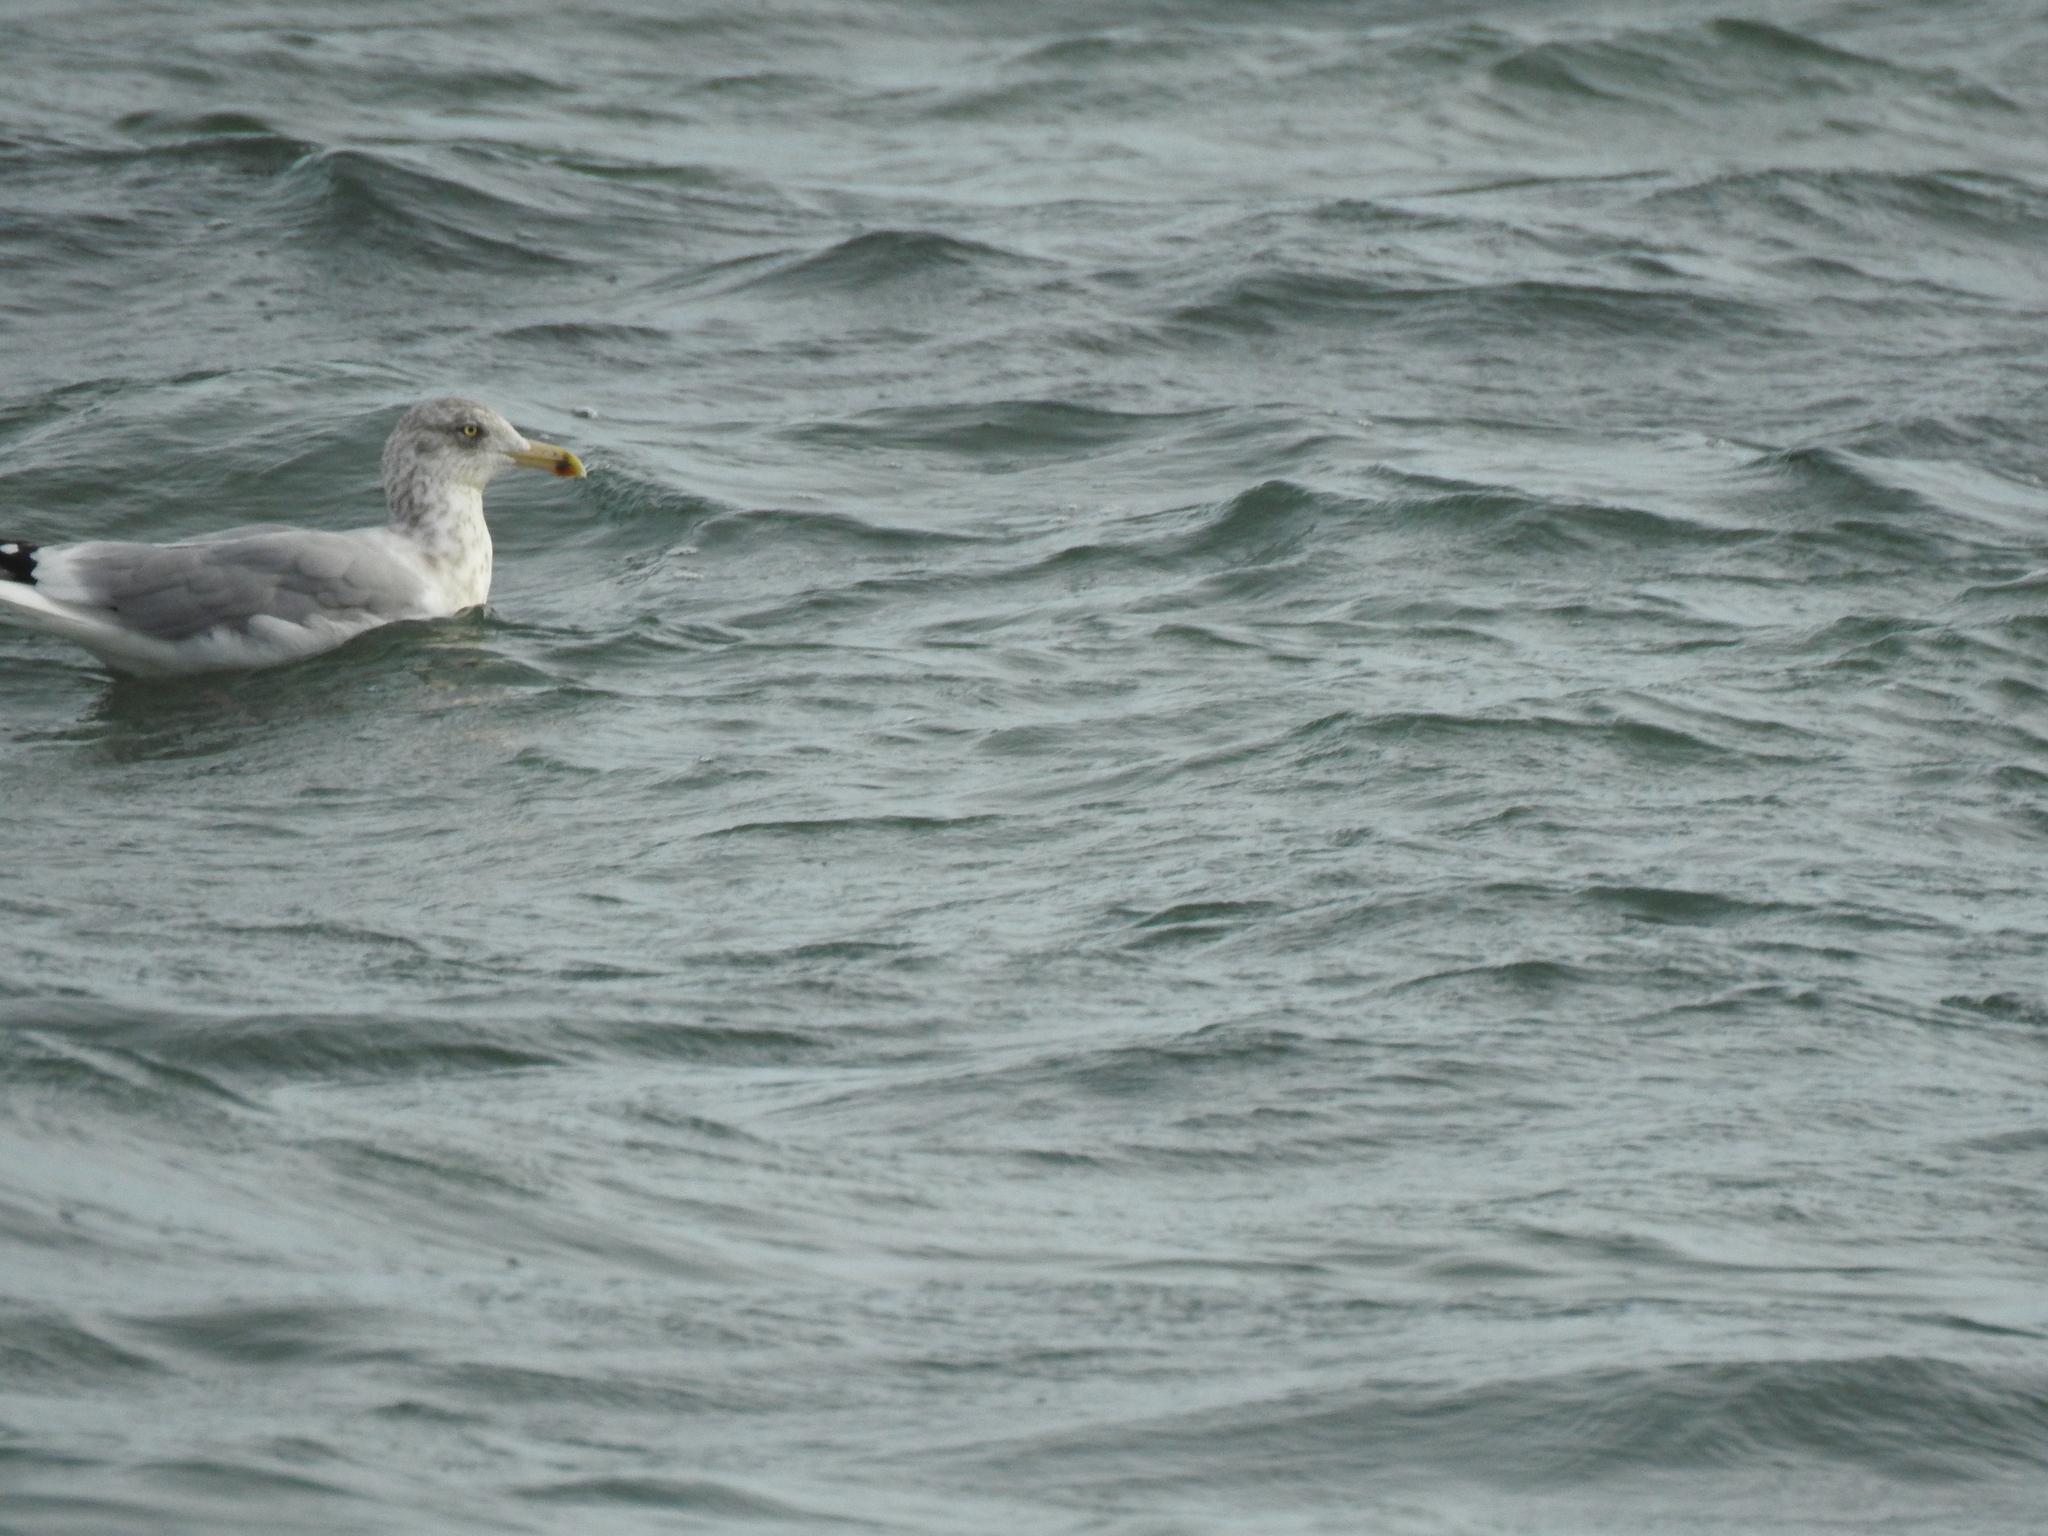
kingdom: Animalia
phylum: Chordata
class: Aves
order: Charadriiformes
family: Laridae
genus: Larus
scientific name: Larus argentatus
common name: Herring gull
